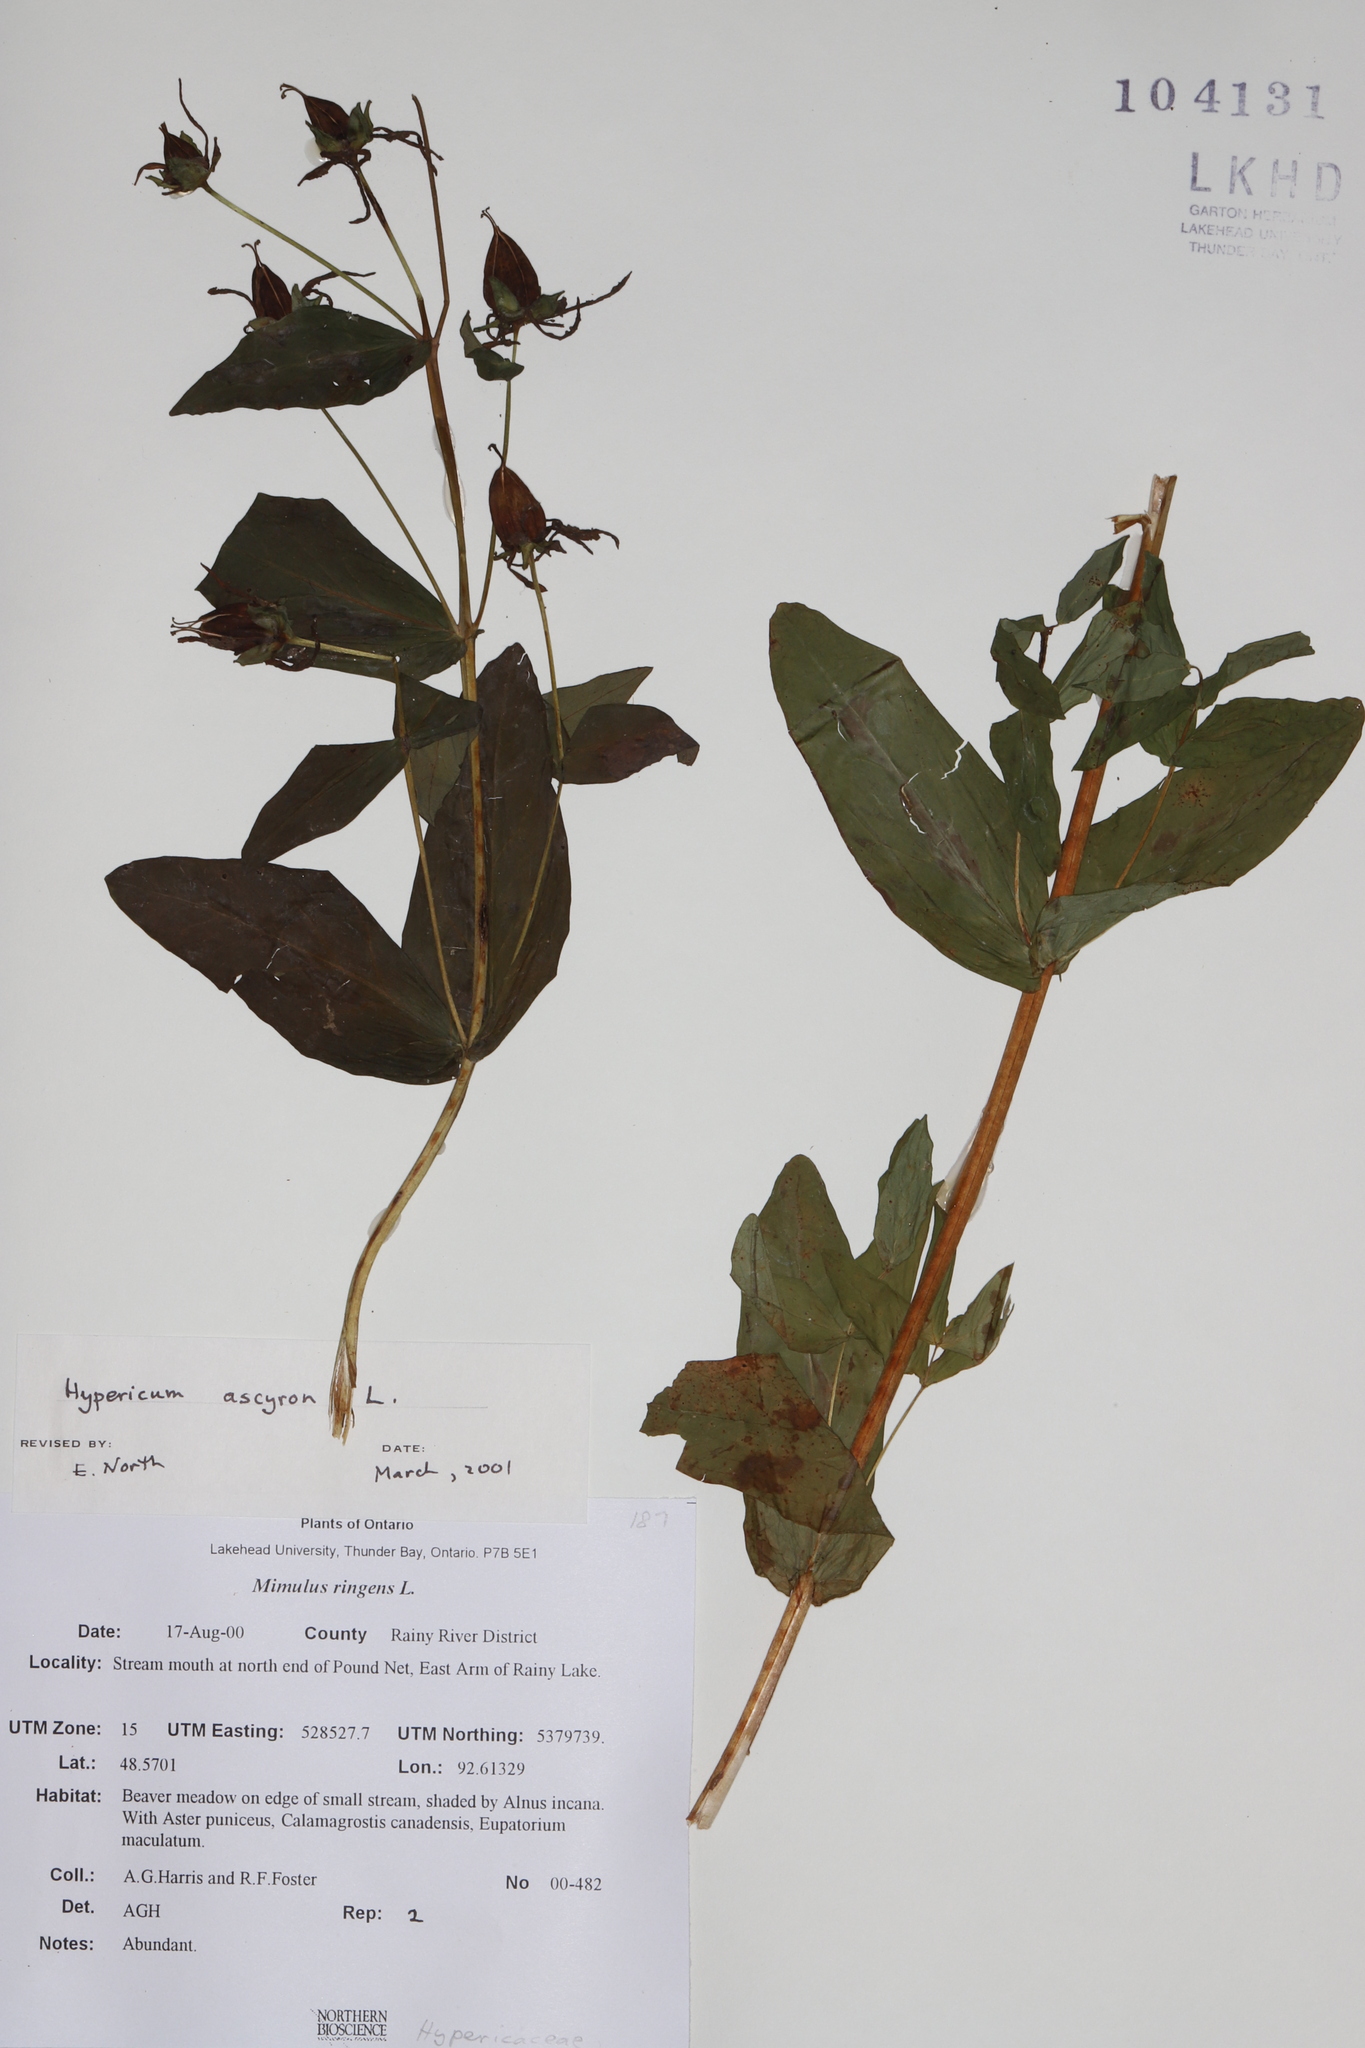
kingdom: Plantae
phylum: Tracheophyta
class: Magnoliopsida
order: Malpighiales
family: Hypericaceae
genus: Hypericum
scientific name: Hypericum ascyron
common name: Giant st. john's-wort
